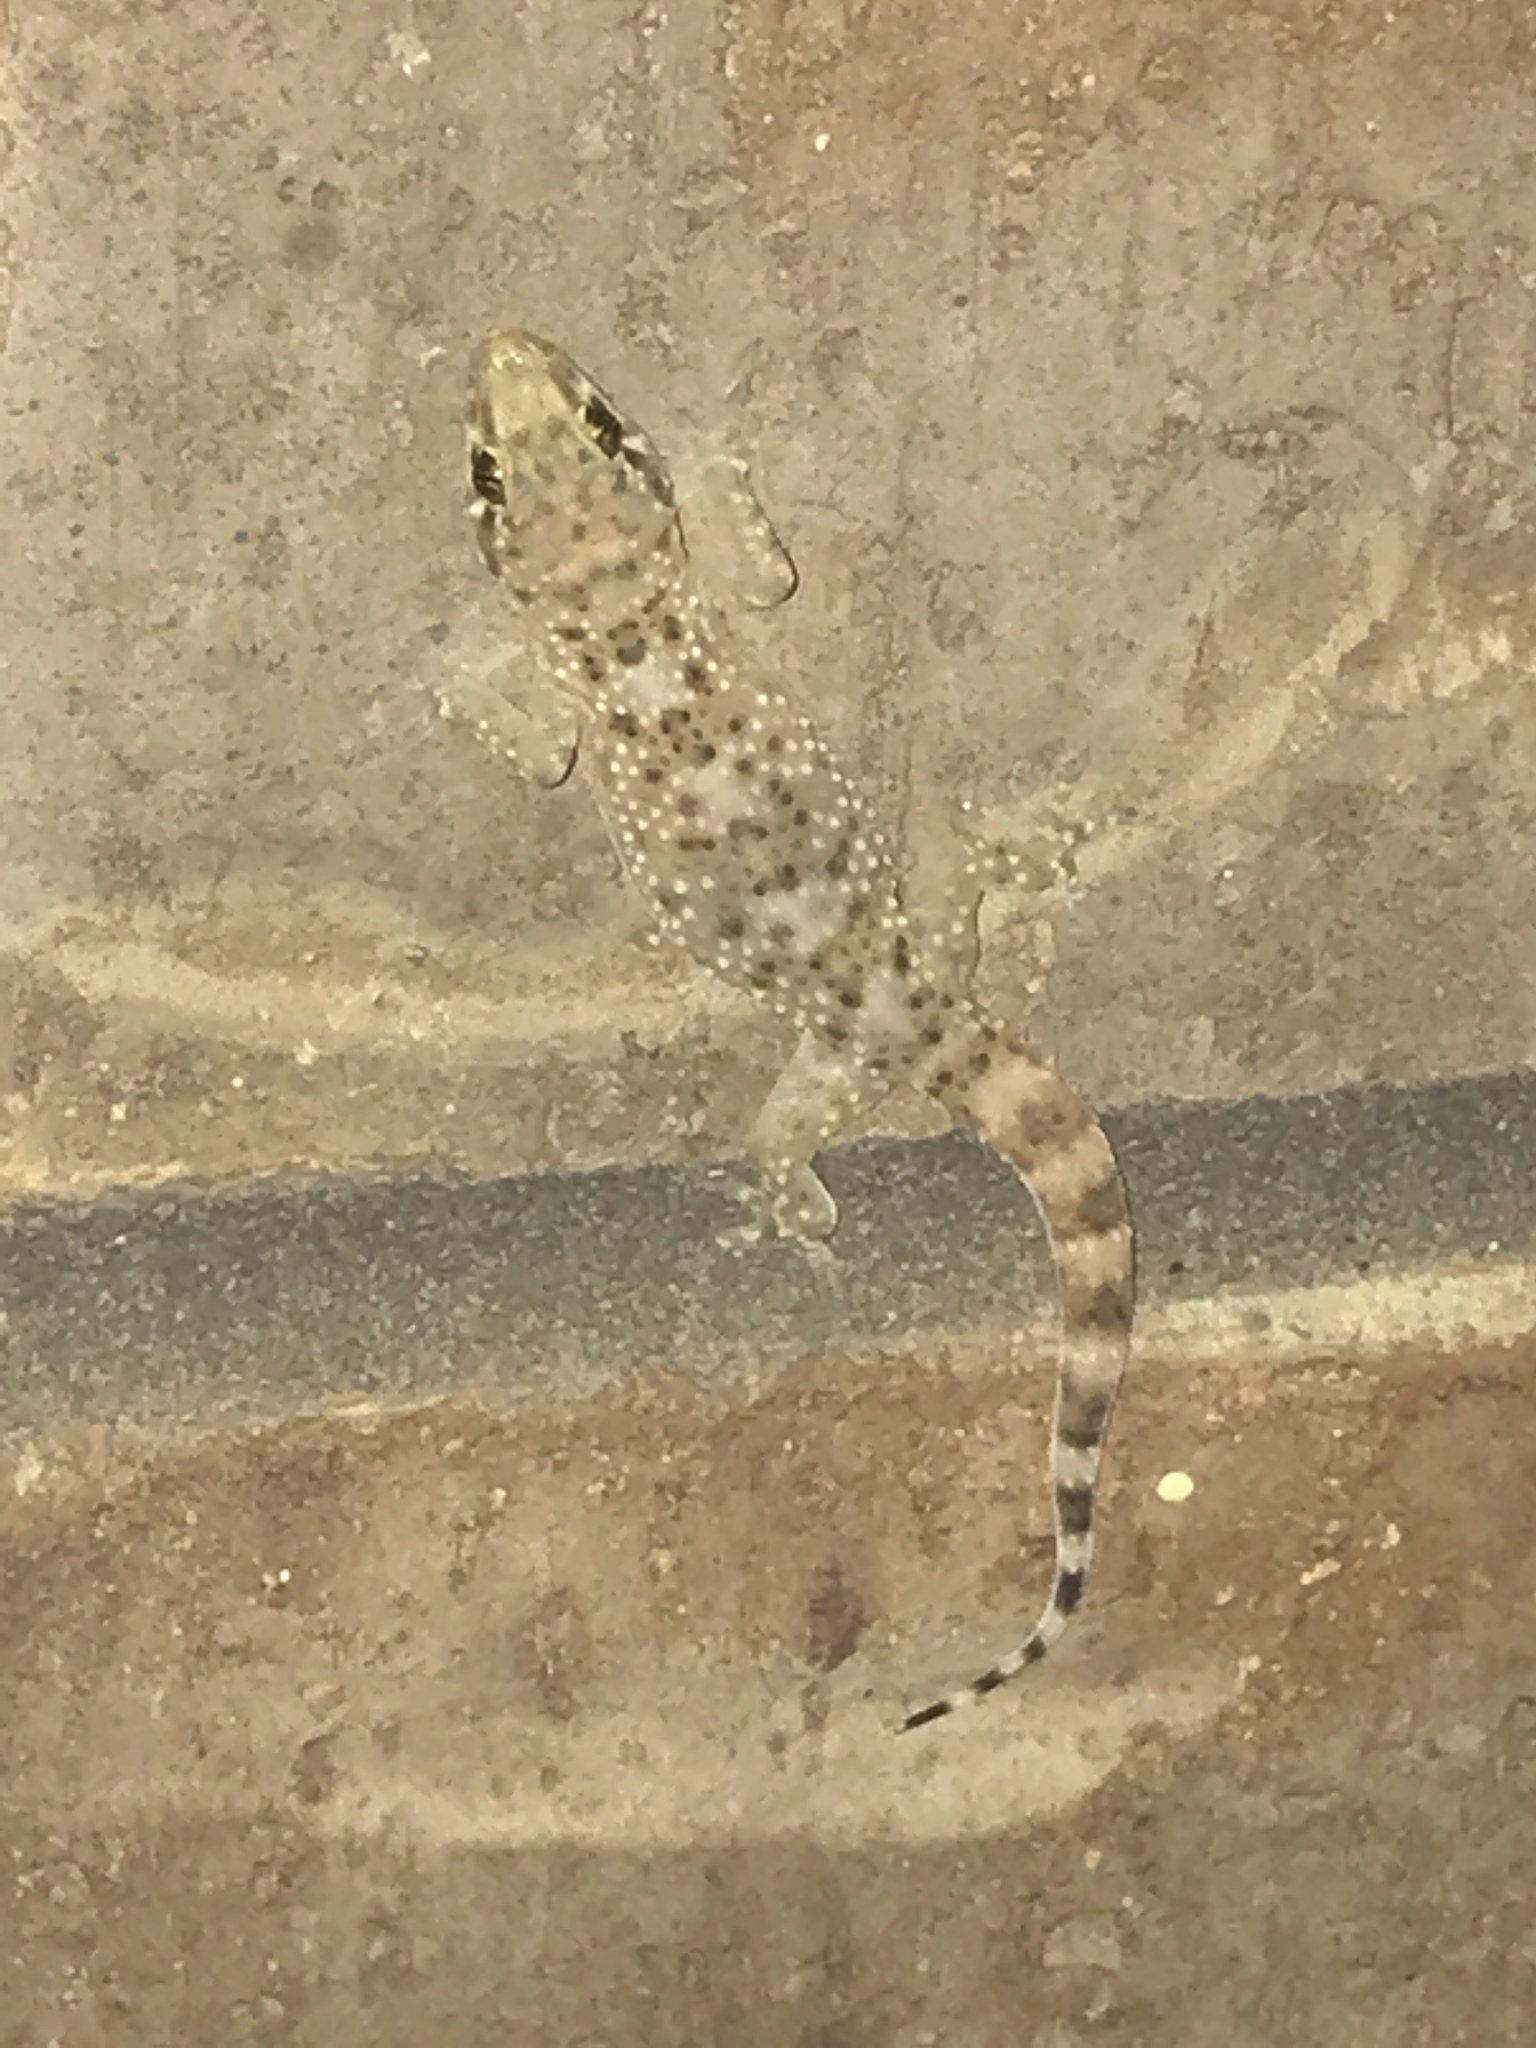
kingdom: Animalia
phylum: Chordata
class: Squamata
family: Gekkonidae
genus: Hemidactylus
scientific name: Hemidactylus turcicus
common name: Turkish gecko
